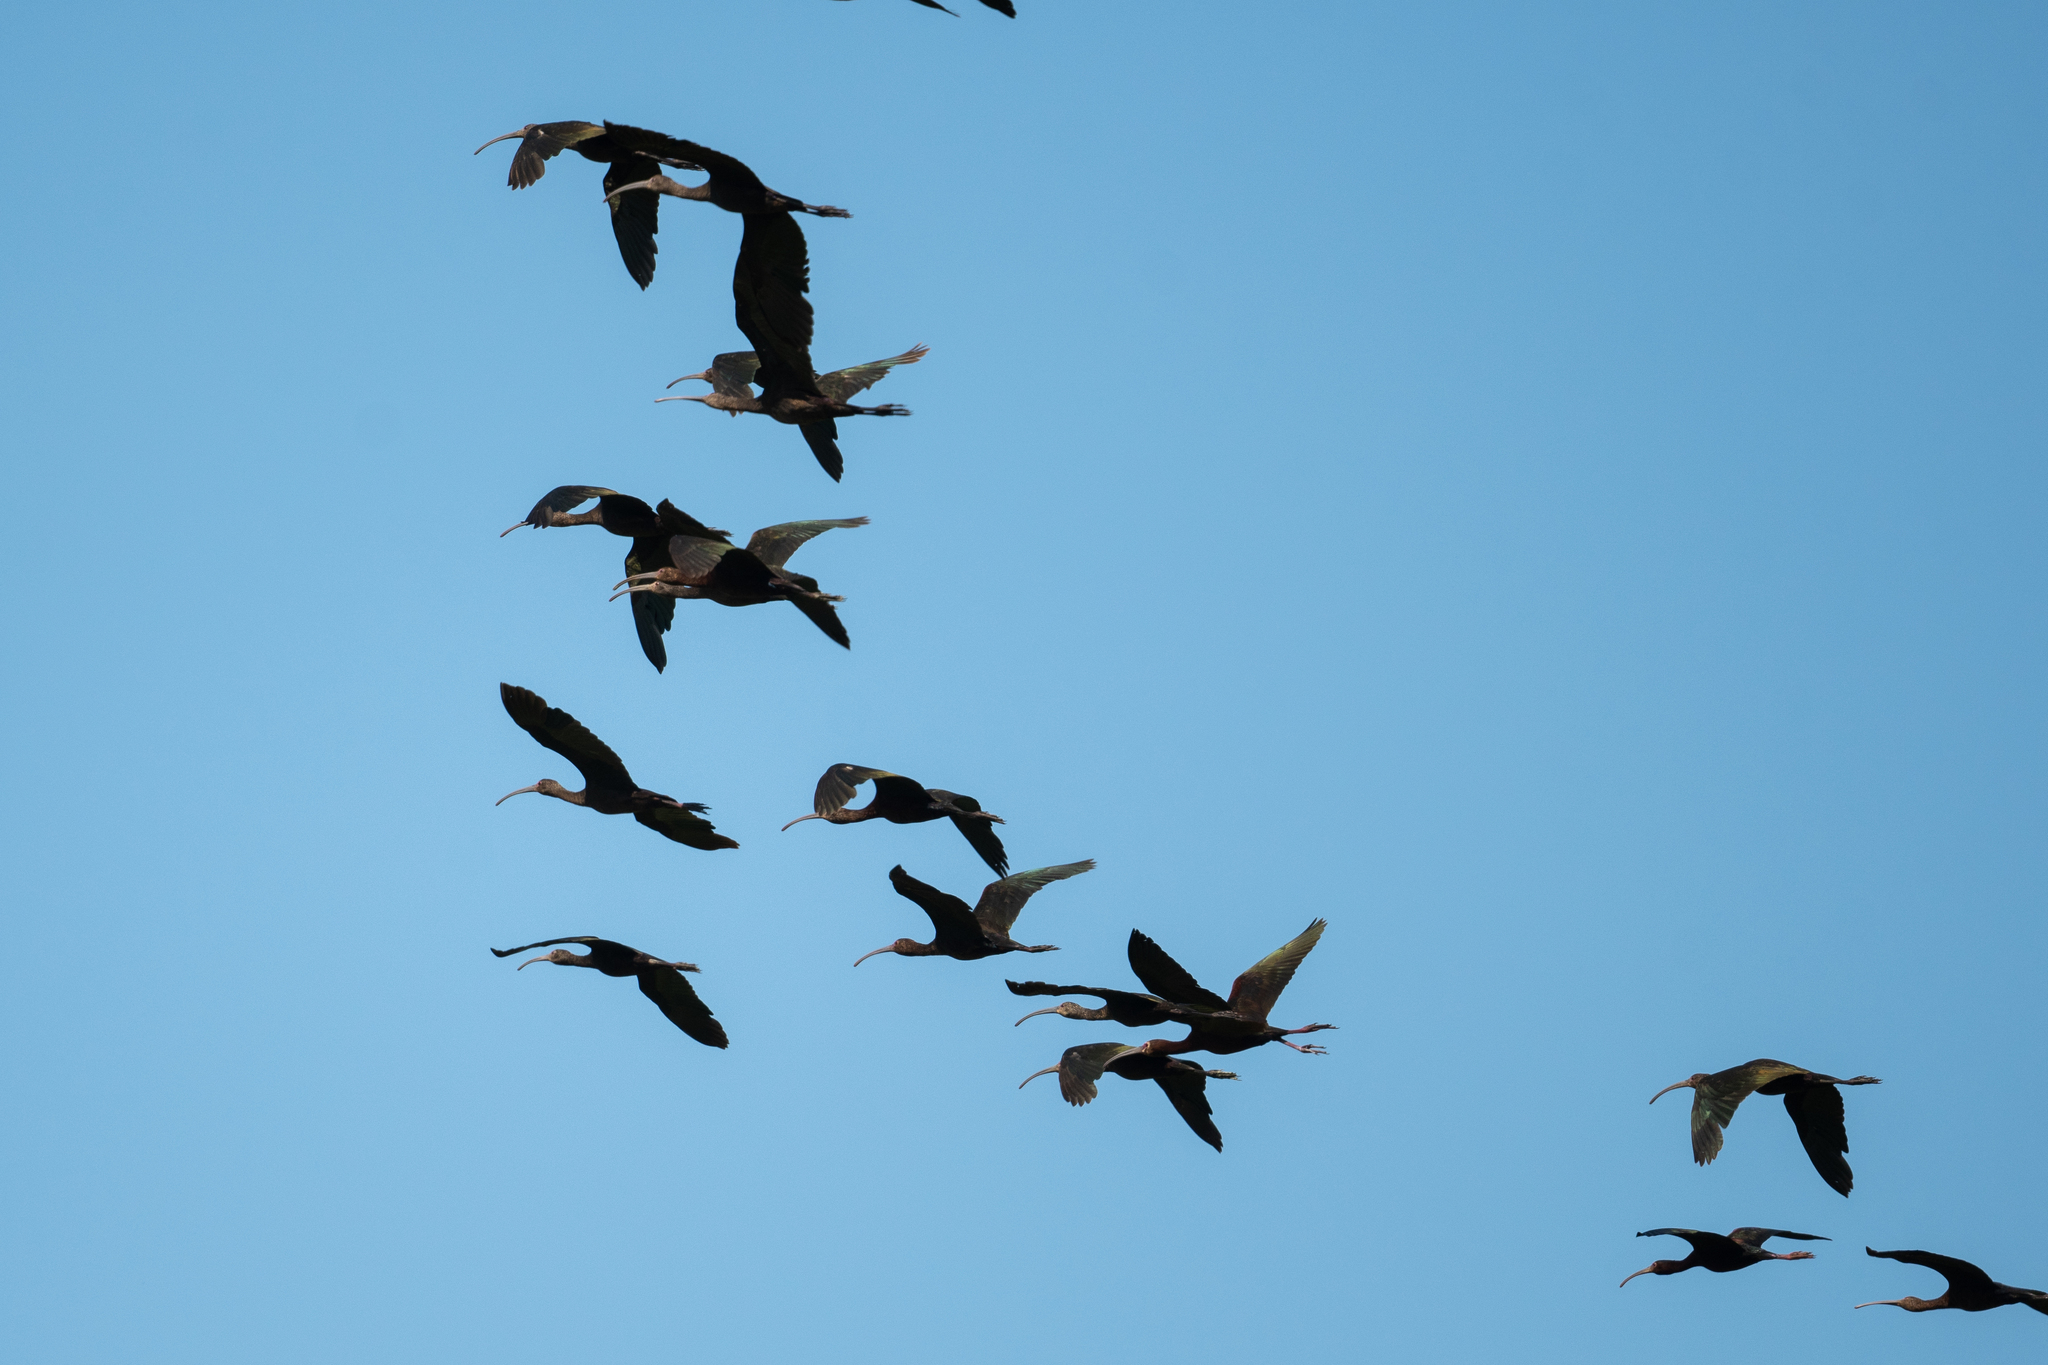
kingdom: Animalia
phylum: Chordata
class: Aves
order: Pelecaniformes
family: Threskiornithidae
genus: Plegadis
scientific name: Plegadis chihi
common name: White-faced ibis
